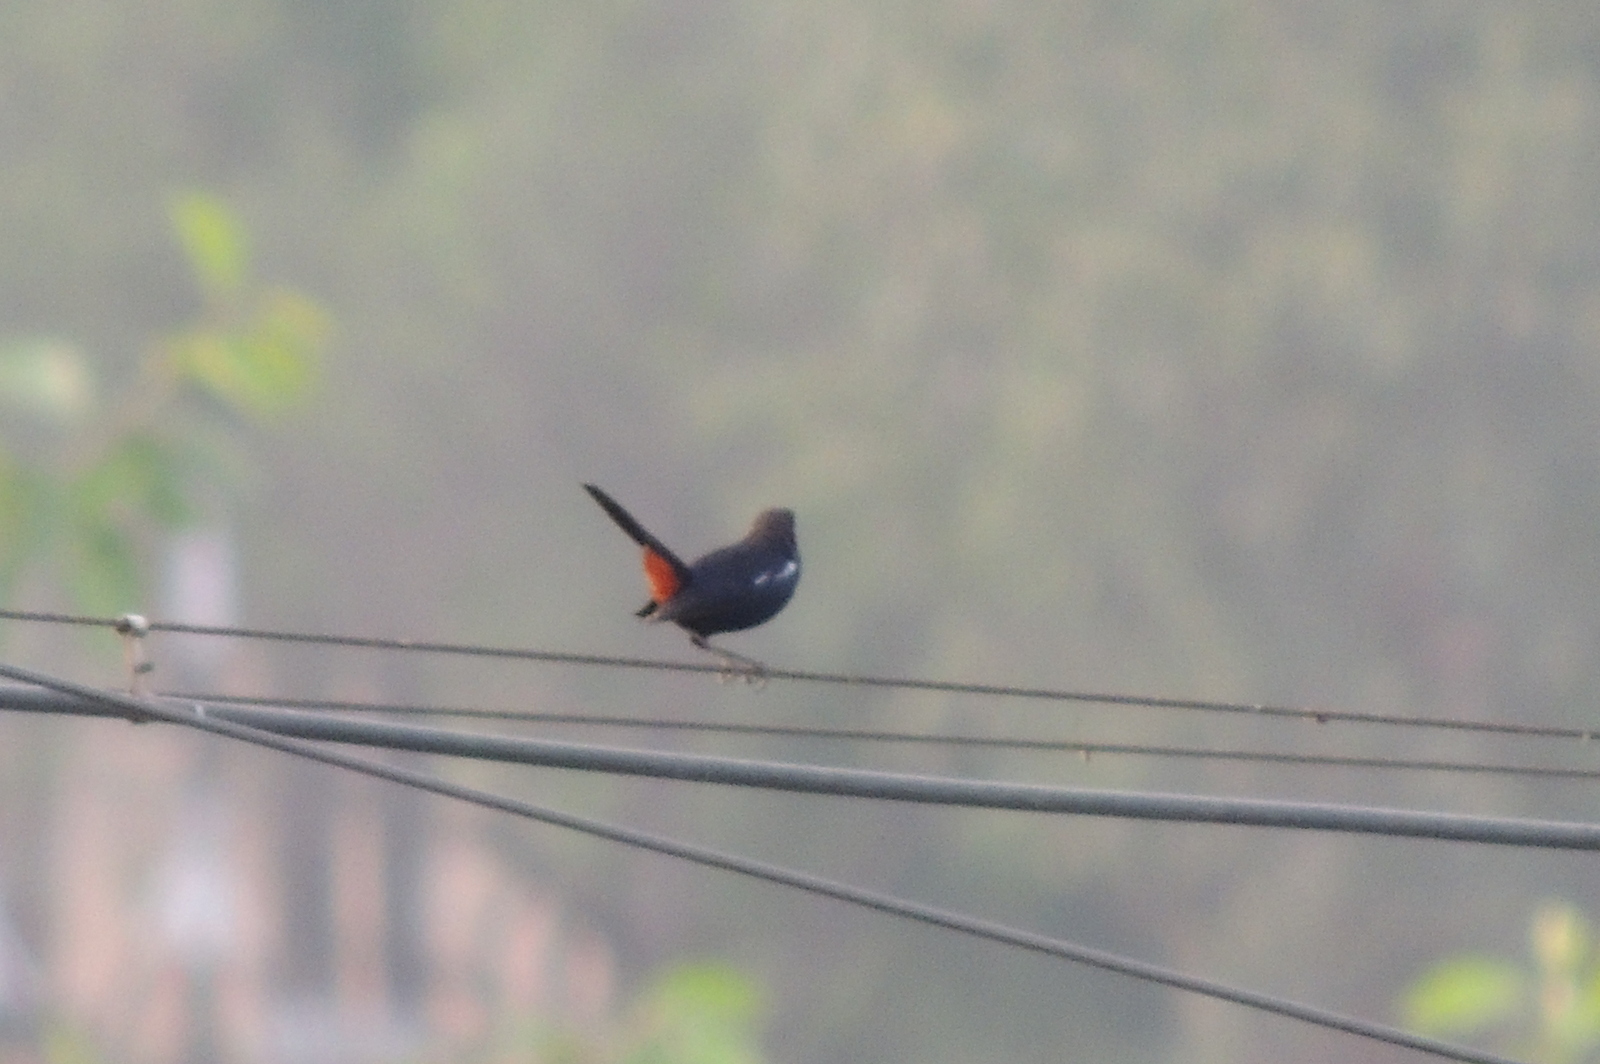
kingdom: Animalia
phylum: Chordata
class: Aves
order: Passeriformes
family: Muscicapidae
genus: Saxicoloides
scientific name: Saxicoloides fulicatus
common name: Indian robin
